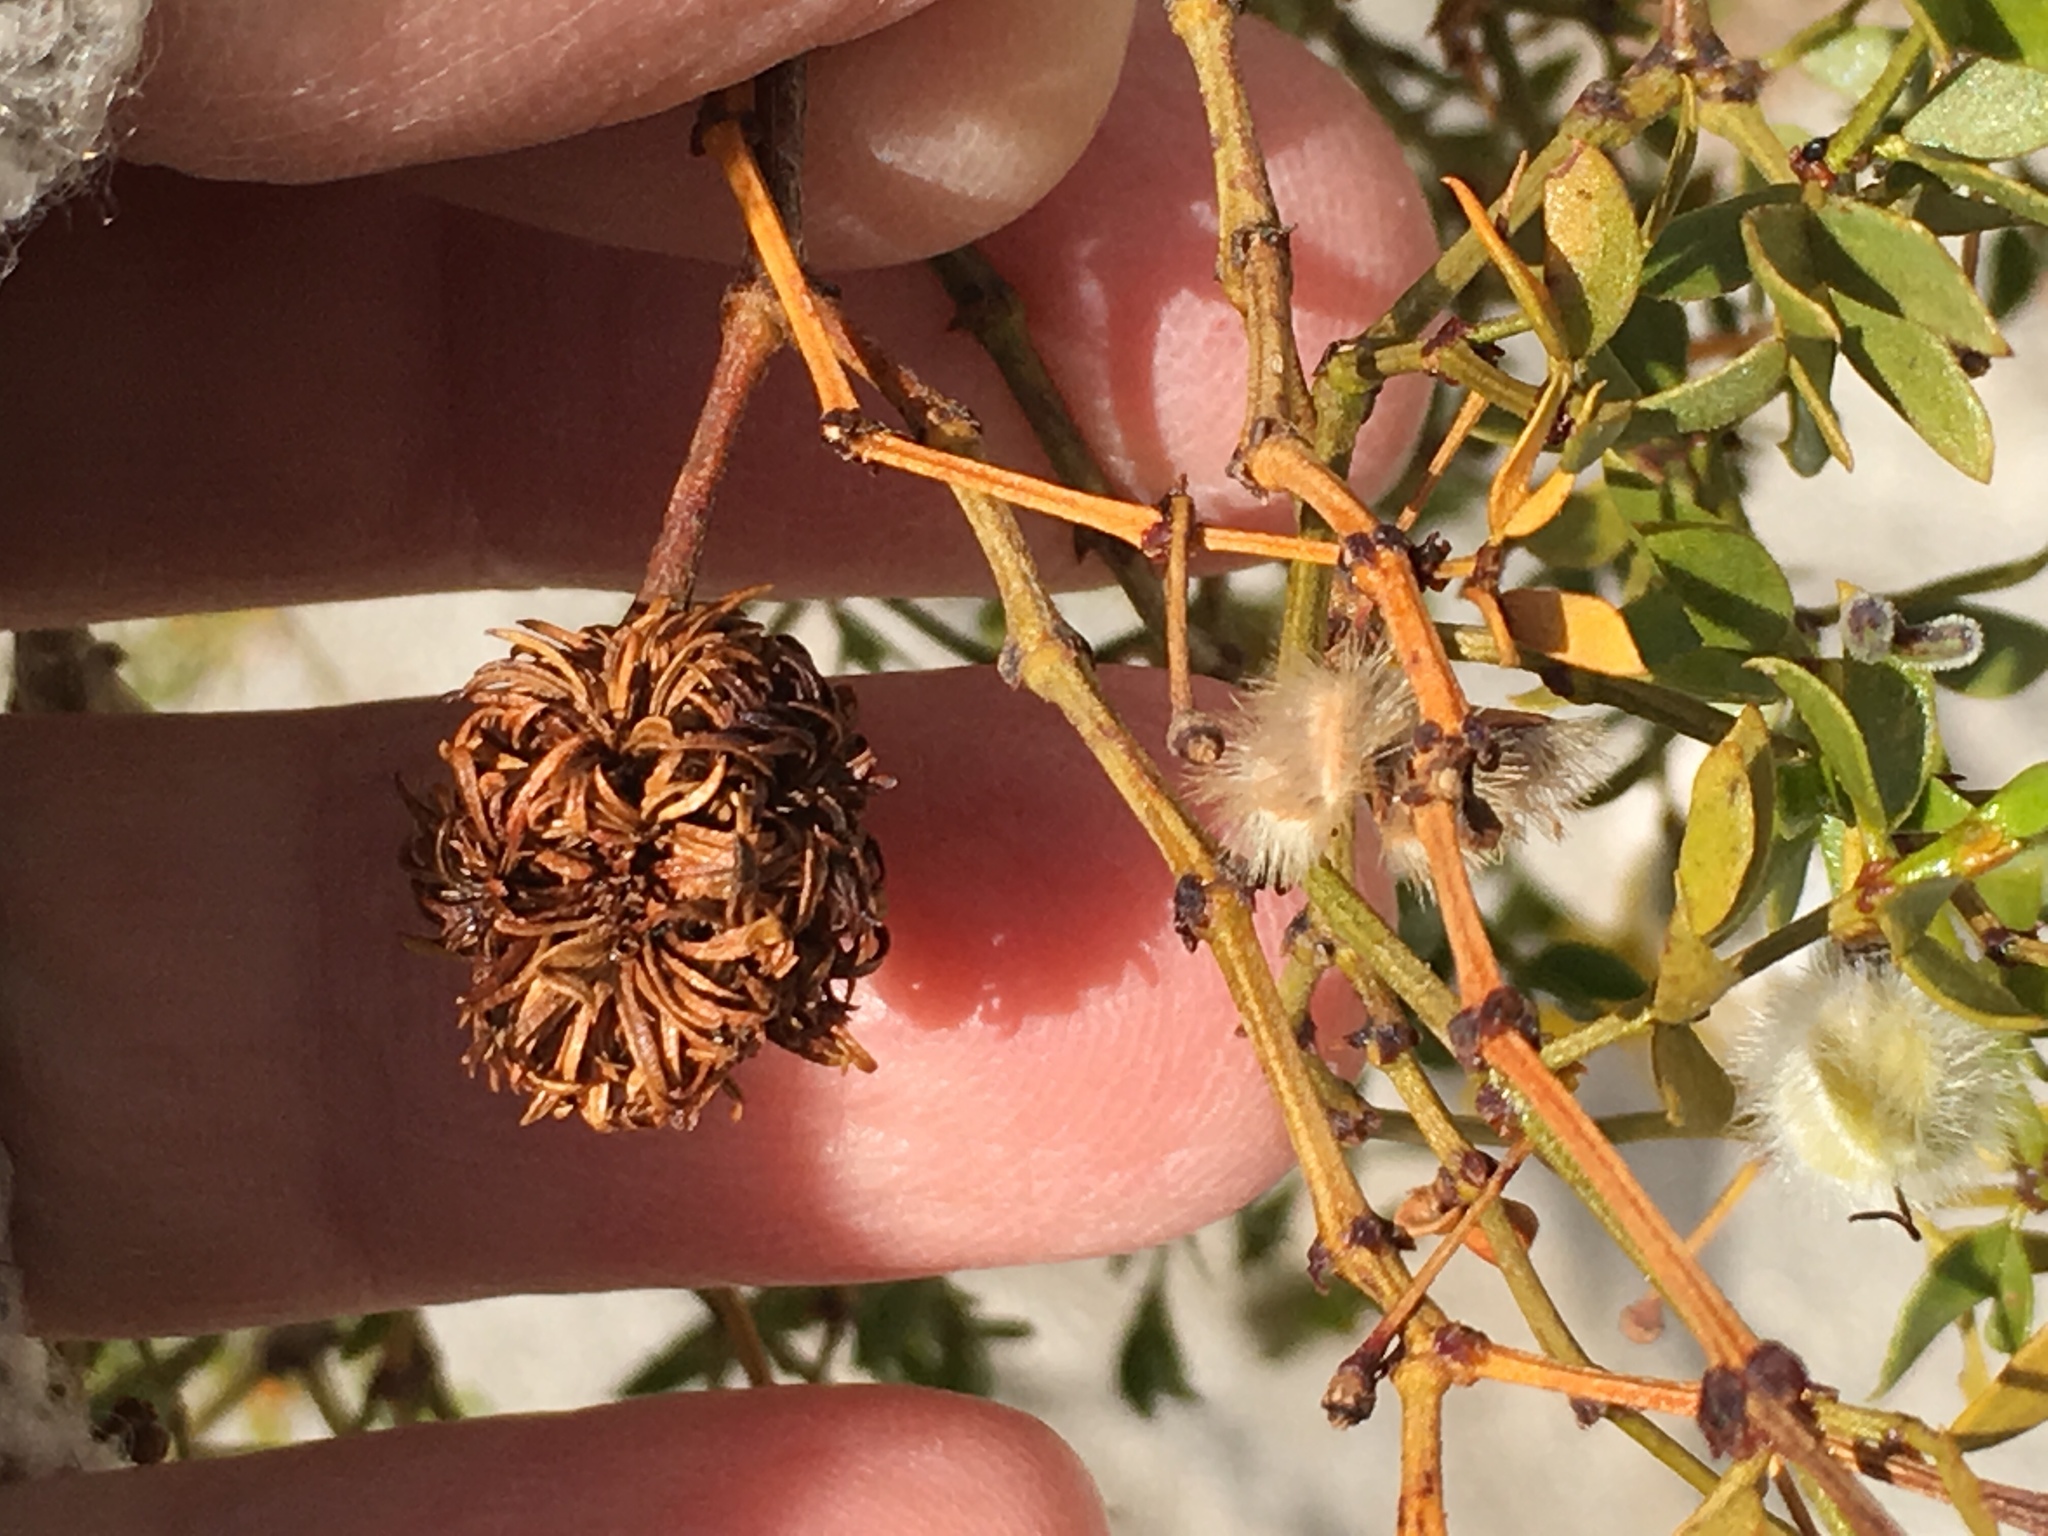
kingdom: Animalia
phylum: Arthropoda
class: Insecta
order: Diptera
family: Cecidomyiidae
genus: Asphondylia
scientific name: Asphondylia auripila
